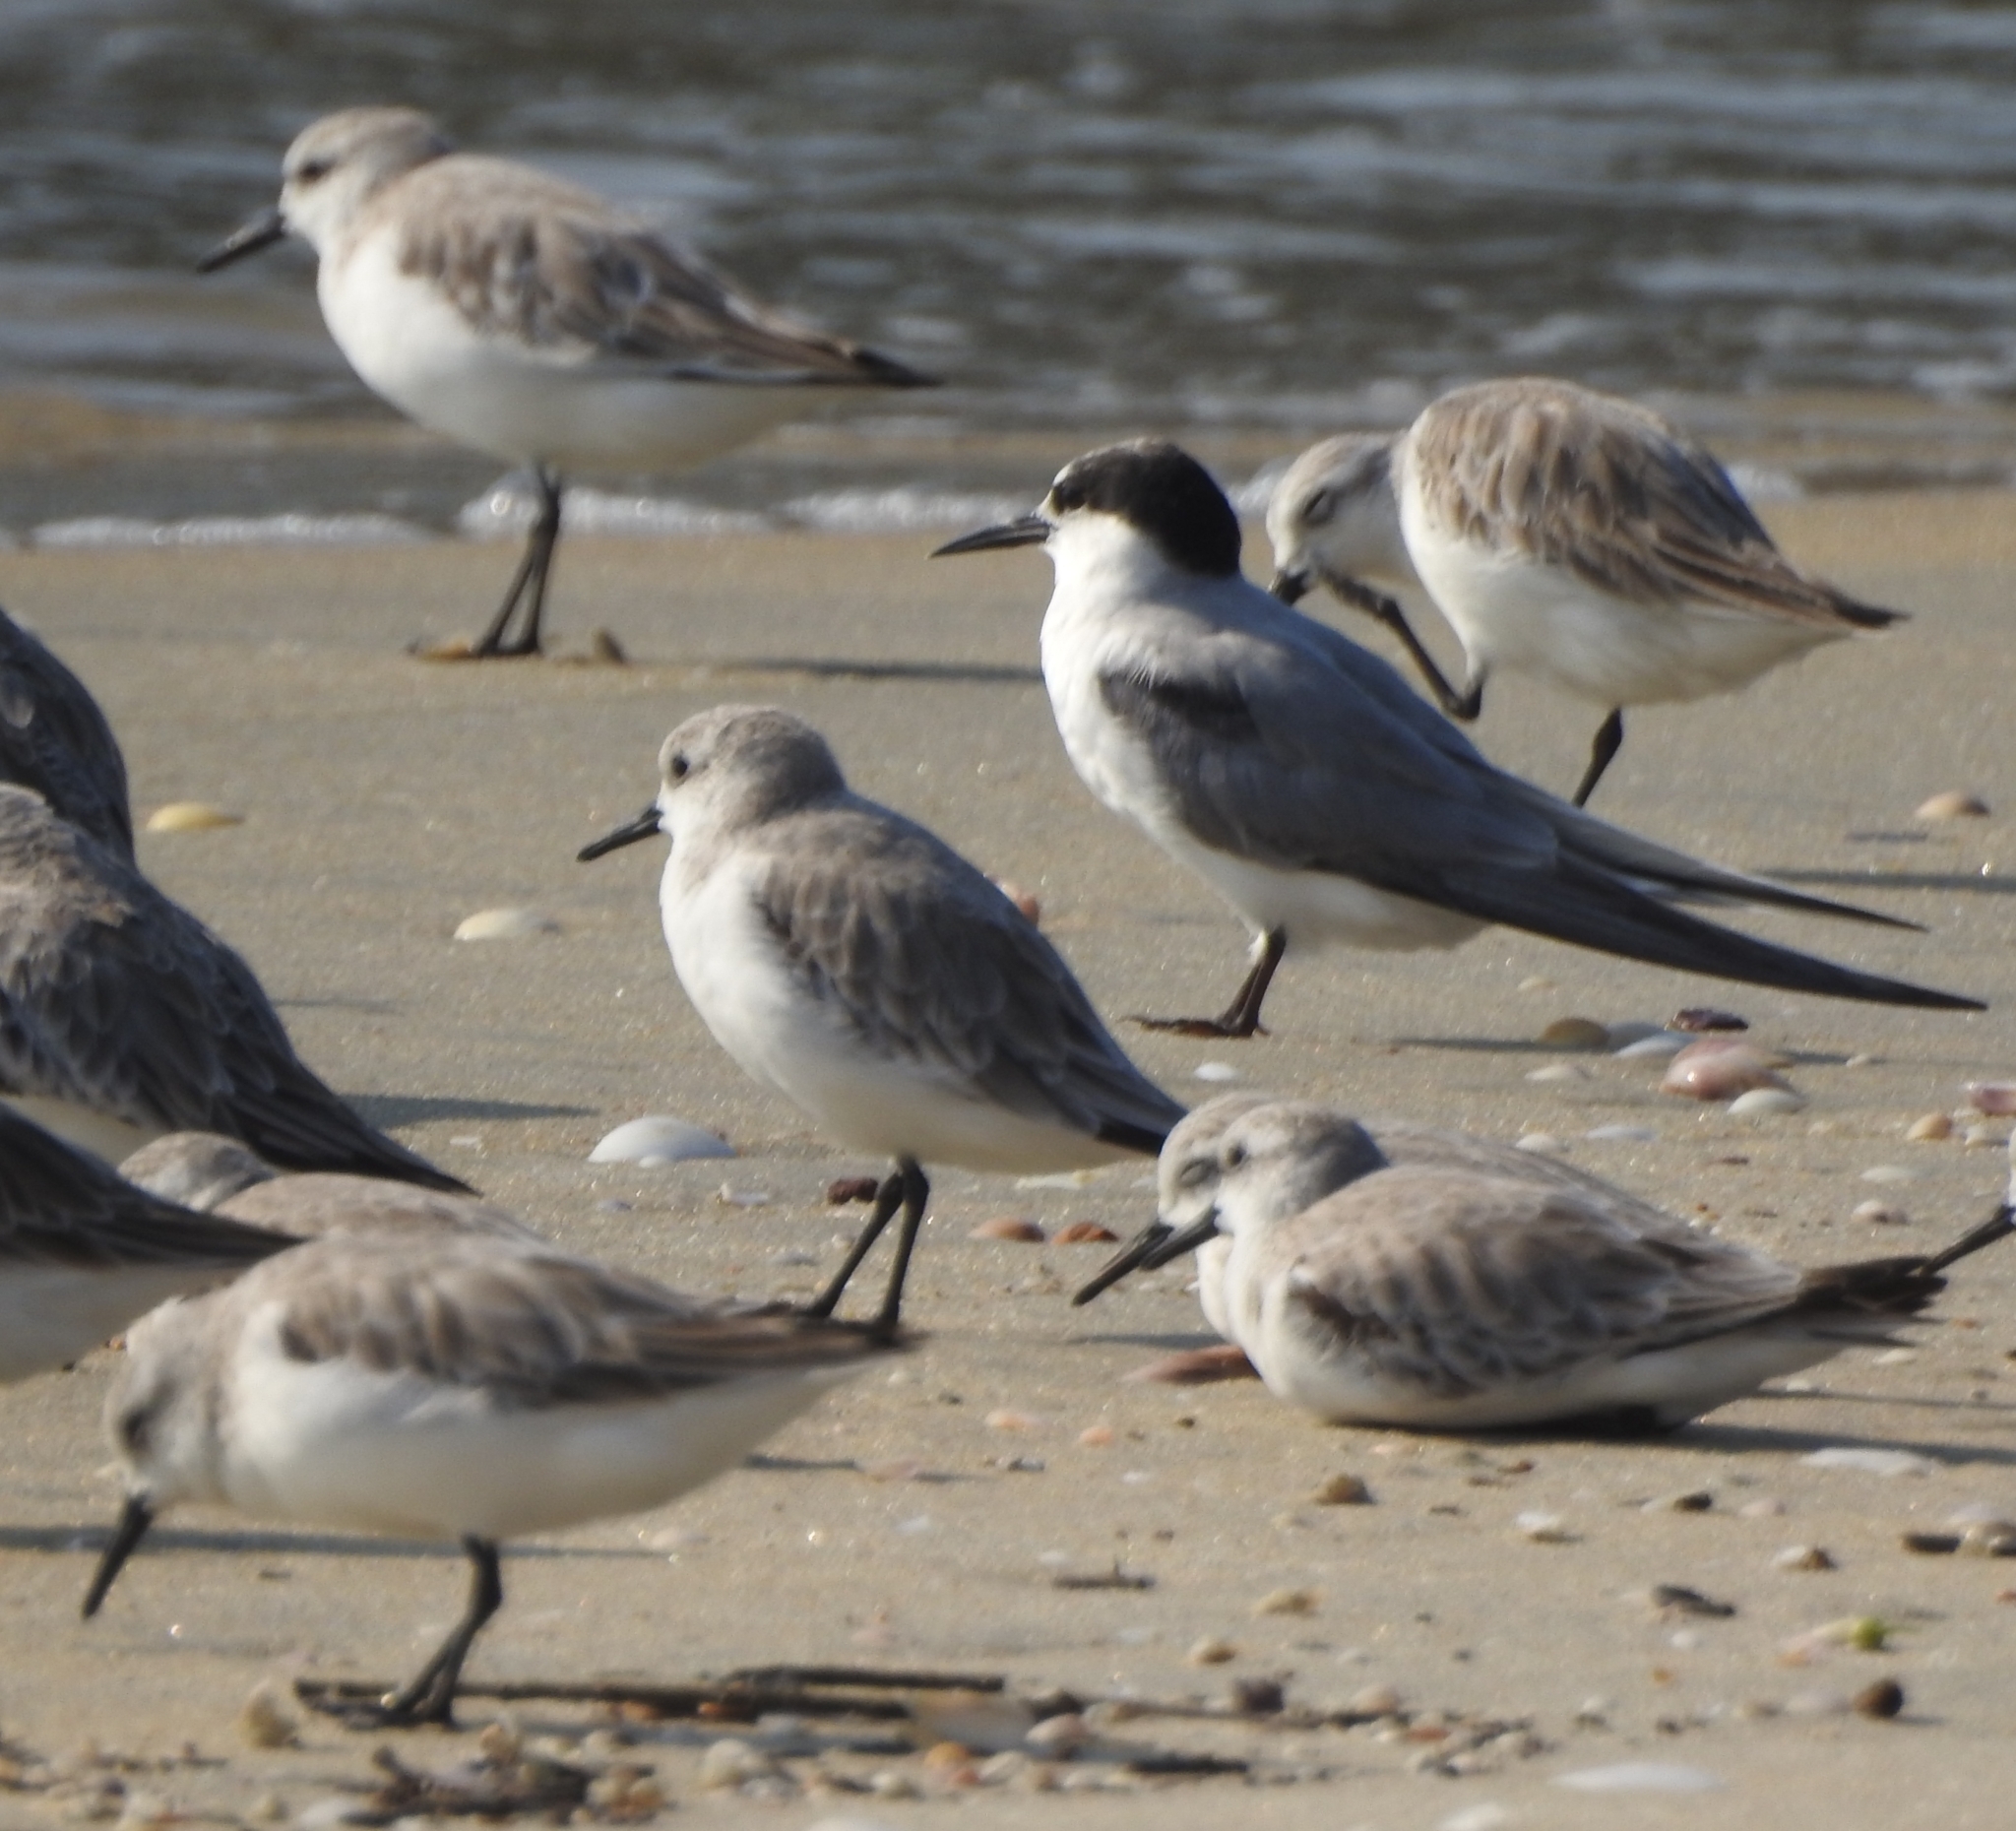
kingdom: Animalia
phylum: Chordata
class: Aves
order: Charadriiformes
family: Laridae
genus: Sternula
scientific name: Sternula albifrons
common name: Little tern
